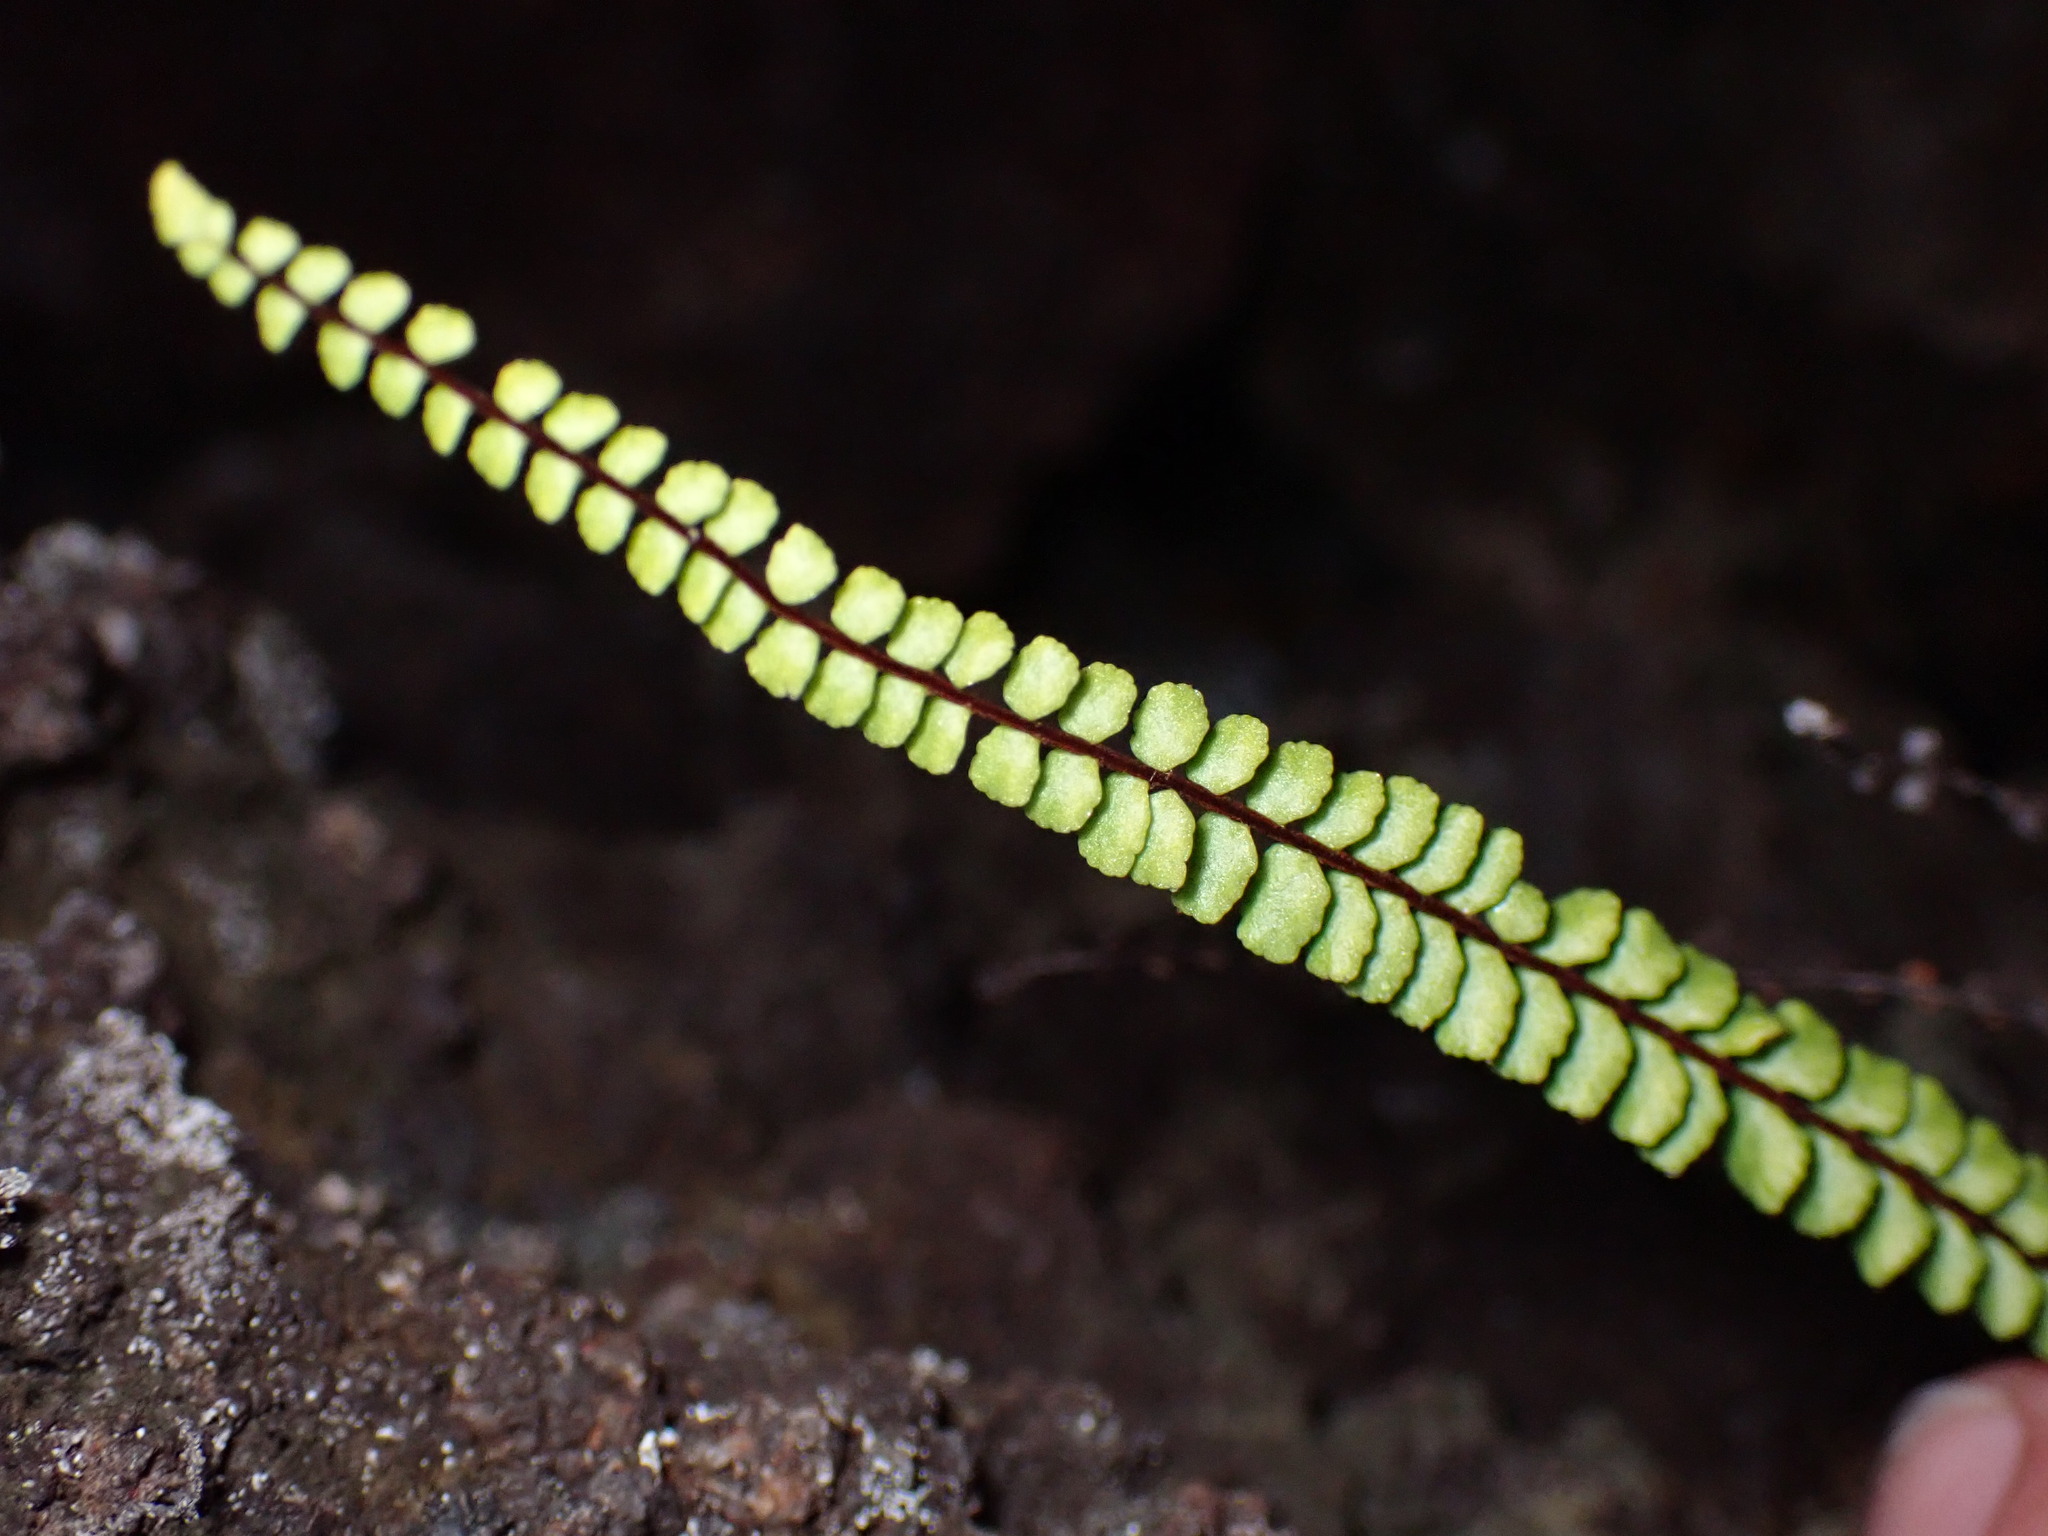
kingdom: Plantae
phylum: Tracheophyta
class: Polypodiopsida
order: Polypodiales
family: Aspleniaceae
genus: Asplenium
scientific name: Asplenium trichomanes
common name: Maidenhair spleenwort
